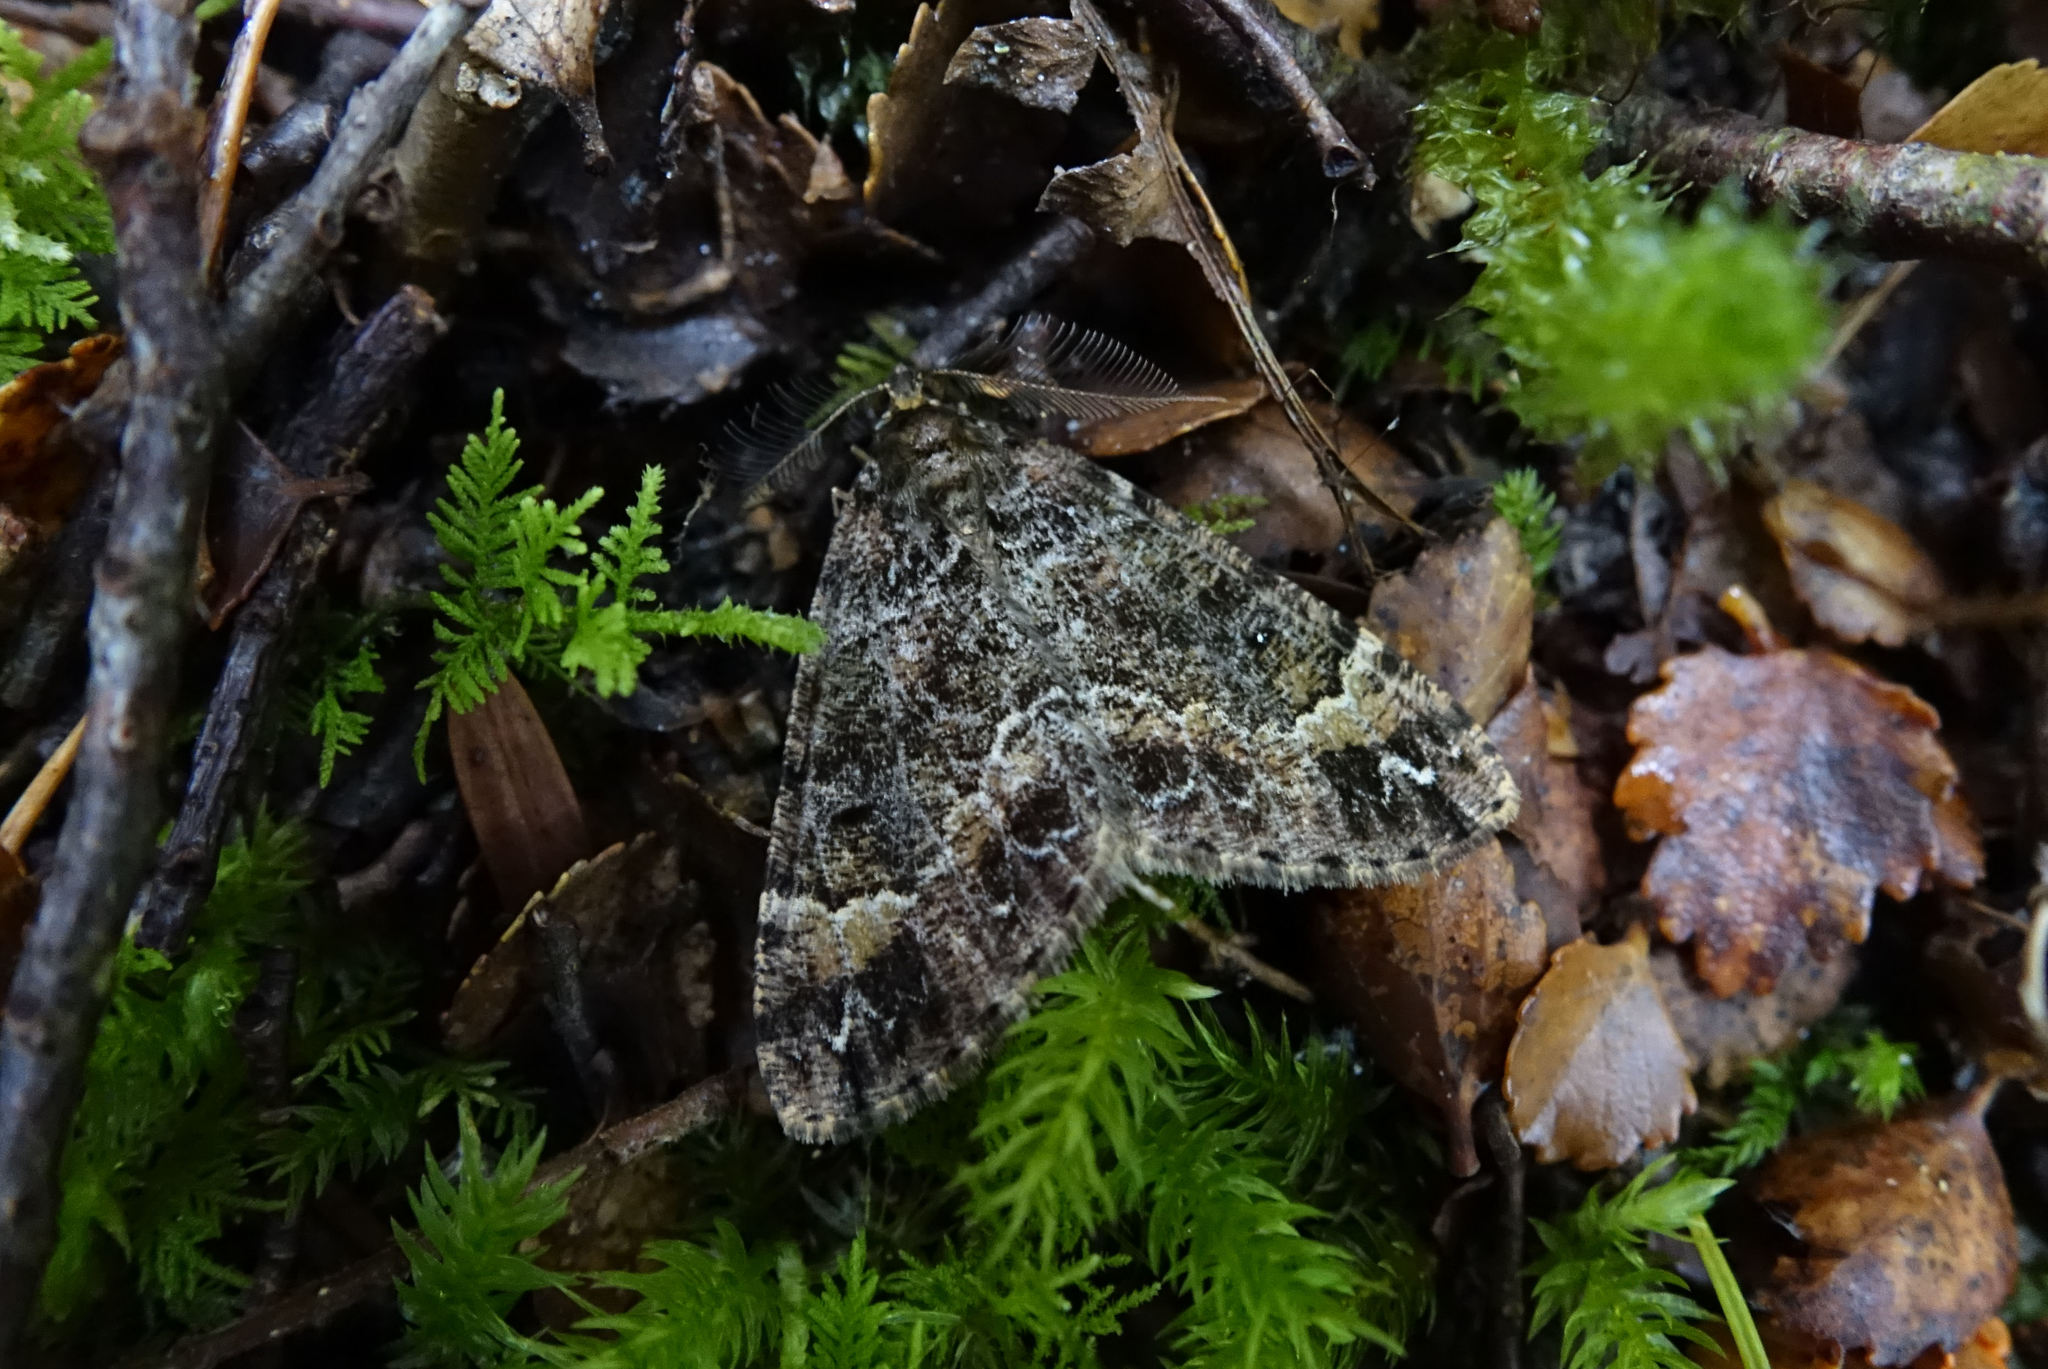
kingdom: Animalia
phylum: Arthropoda
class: Insecta
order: Lepidoptera
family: Geometridae
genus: Pseudocoremia
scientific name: Pseudocoremia productata
